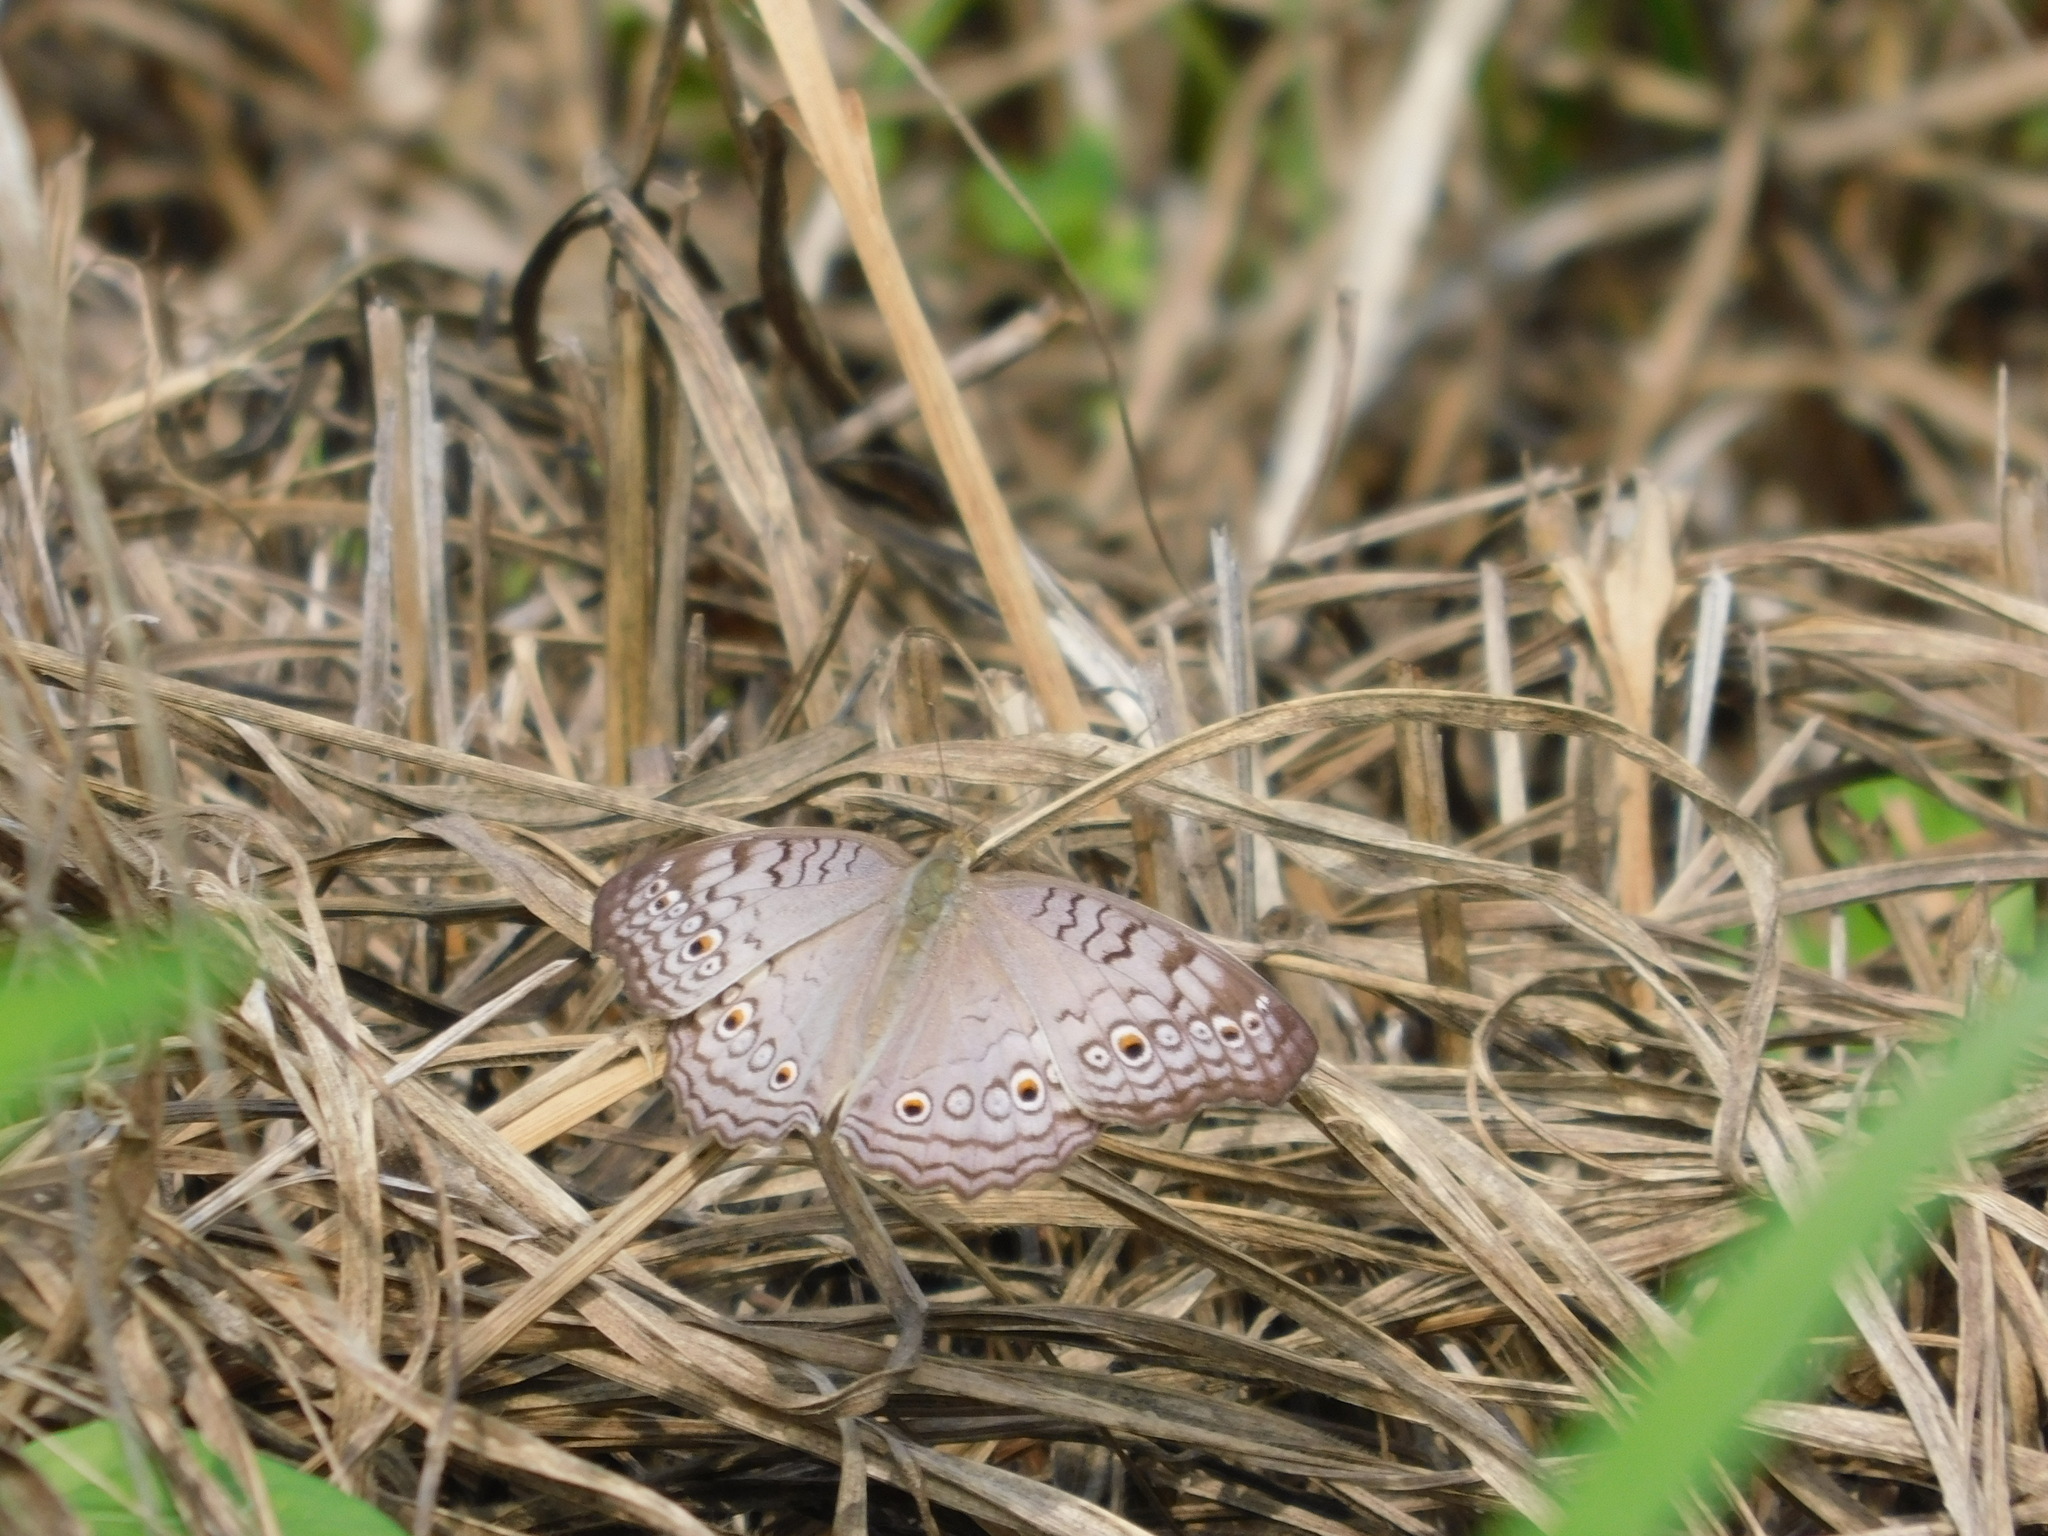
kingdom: Animalia
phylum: Arthropoda
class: Insecta
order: Lepidoptera
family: Nymphalidae
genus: Junonia
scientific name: Junonia atlites
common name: Grey pansy
